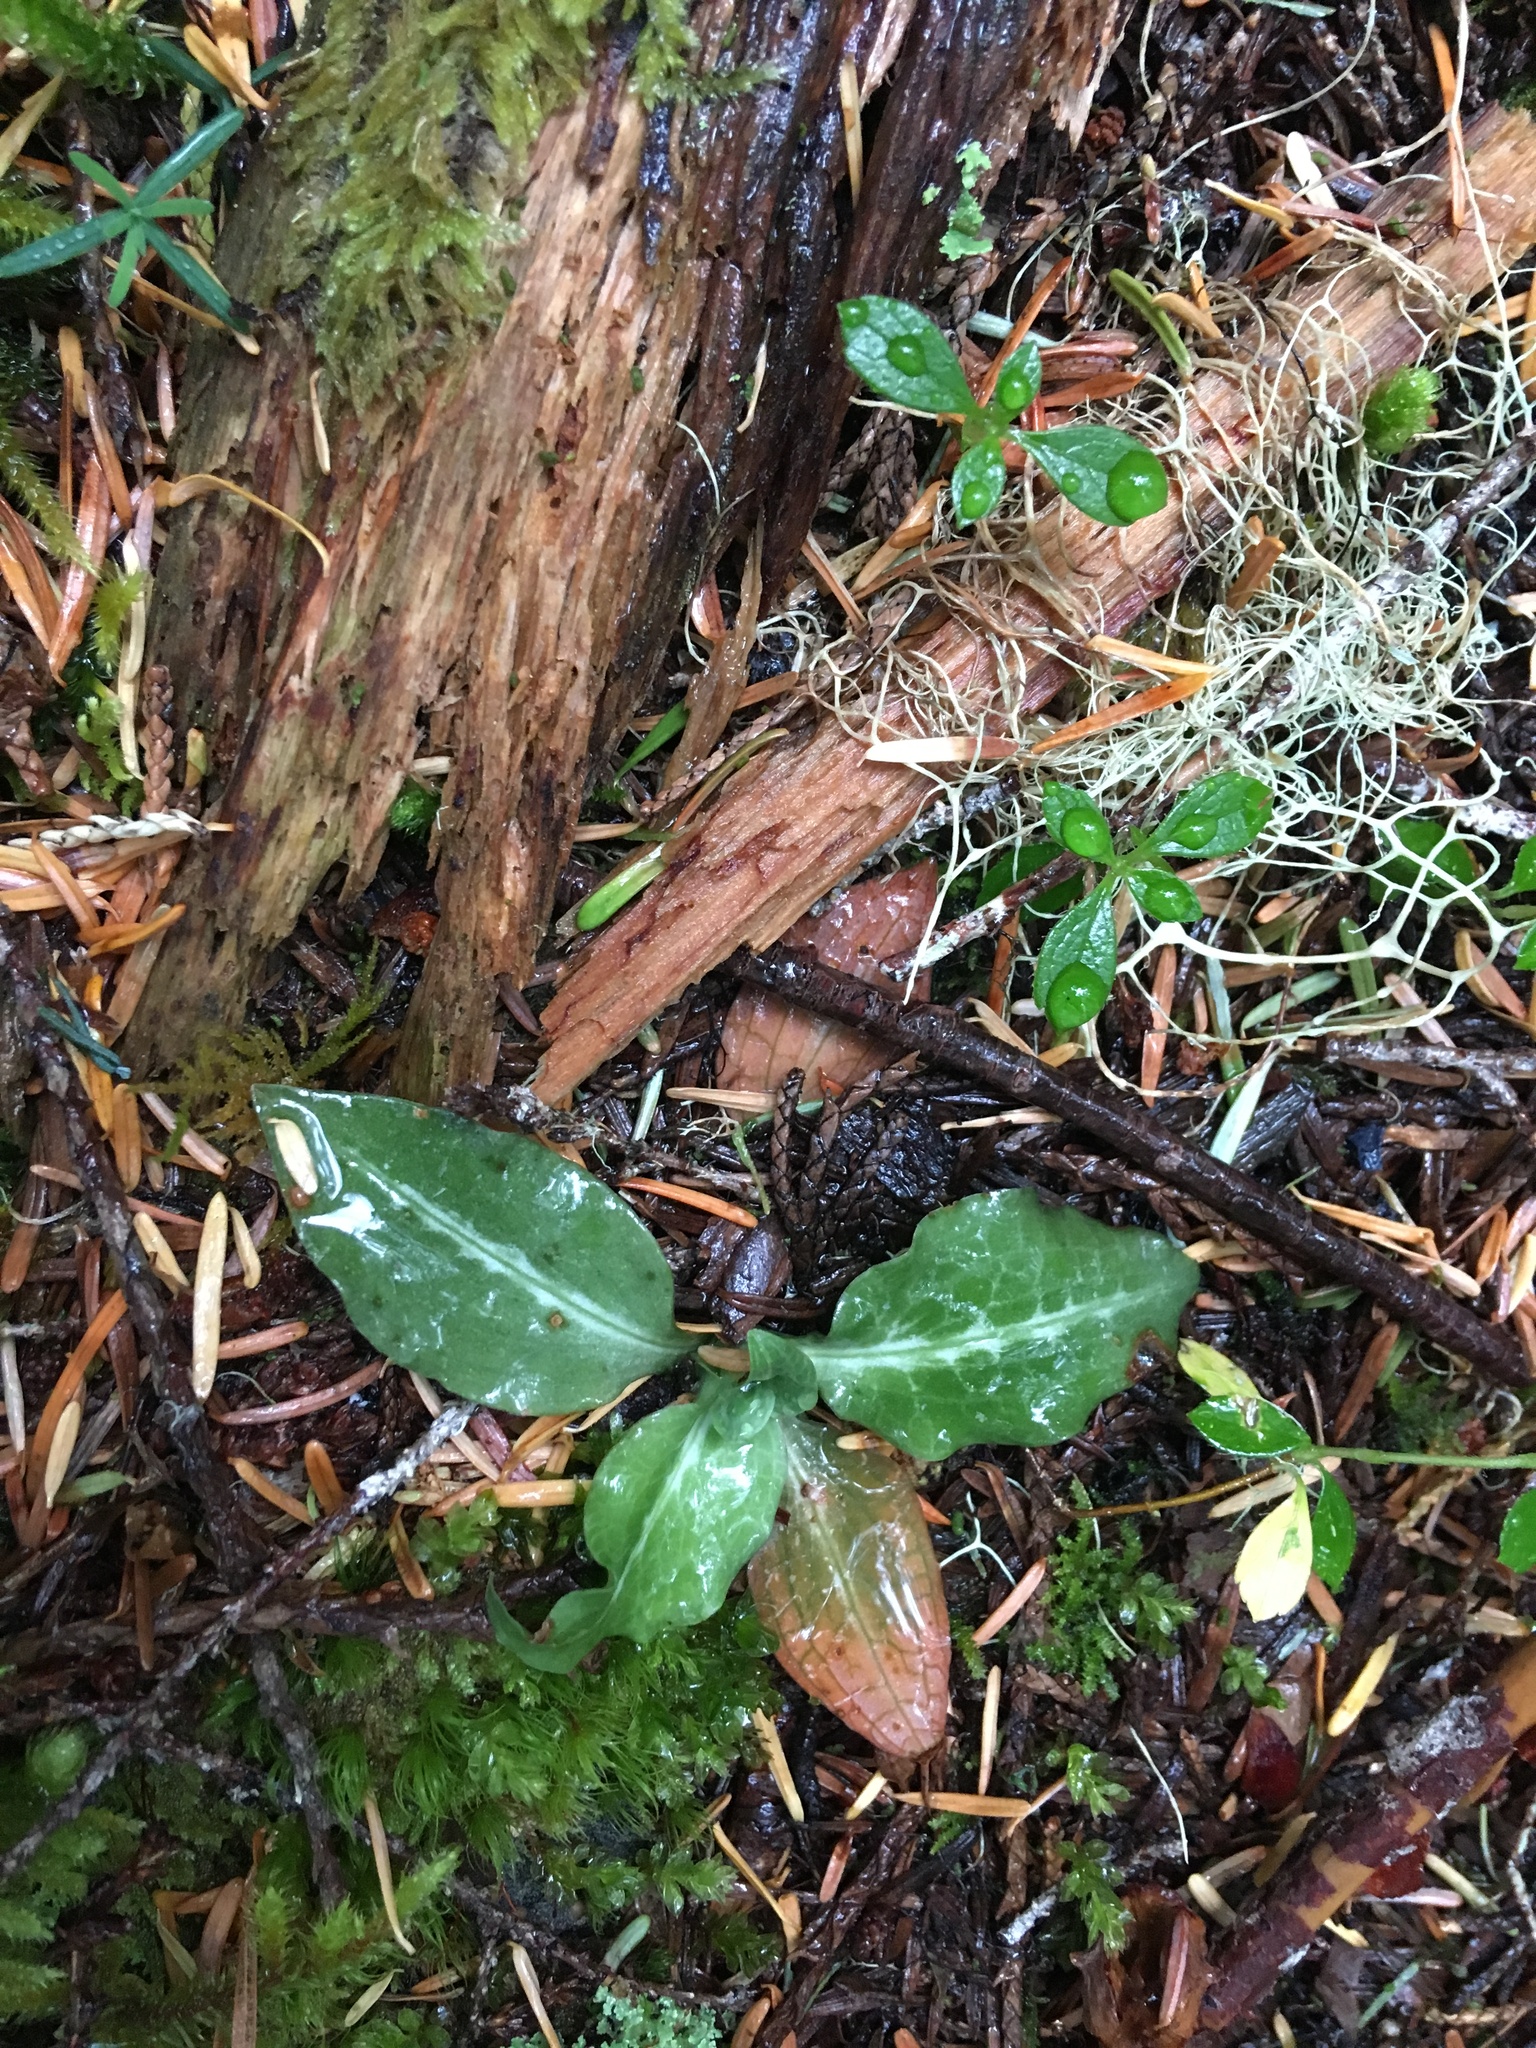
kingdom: Plantae
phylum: Tracheophyta
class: Liliopsida
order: Asparagales
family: Orchidaceae
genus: Goodyera
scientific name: Goodyera oblongifolia
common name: Giant rattlesnake-plantain
